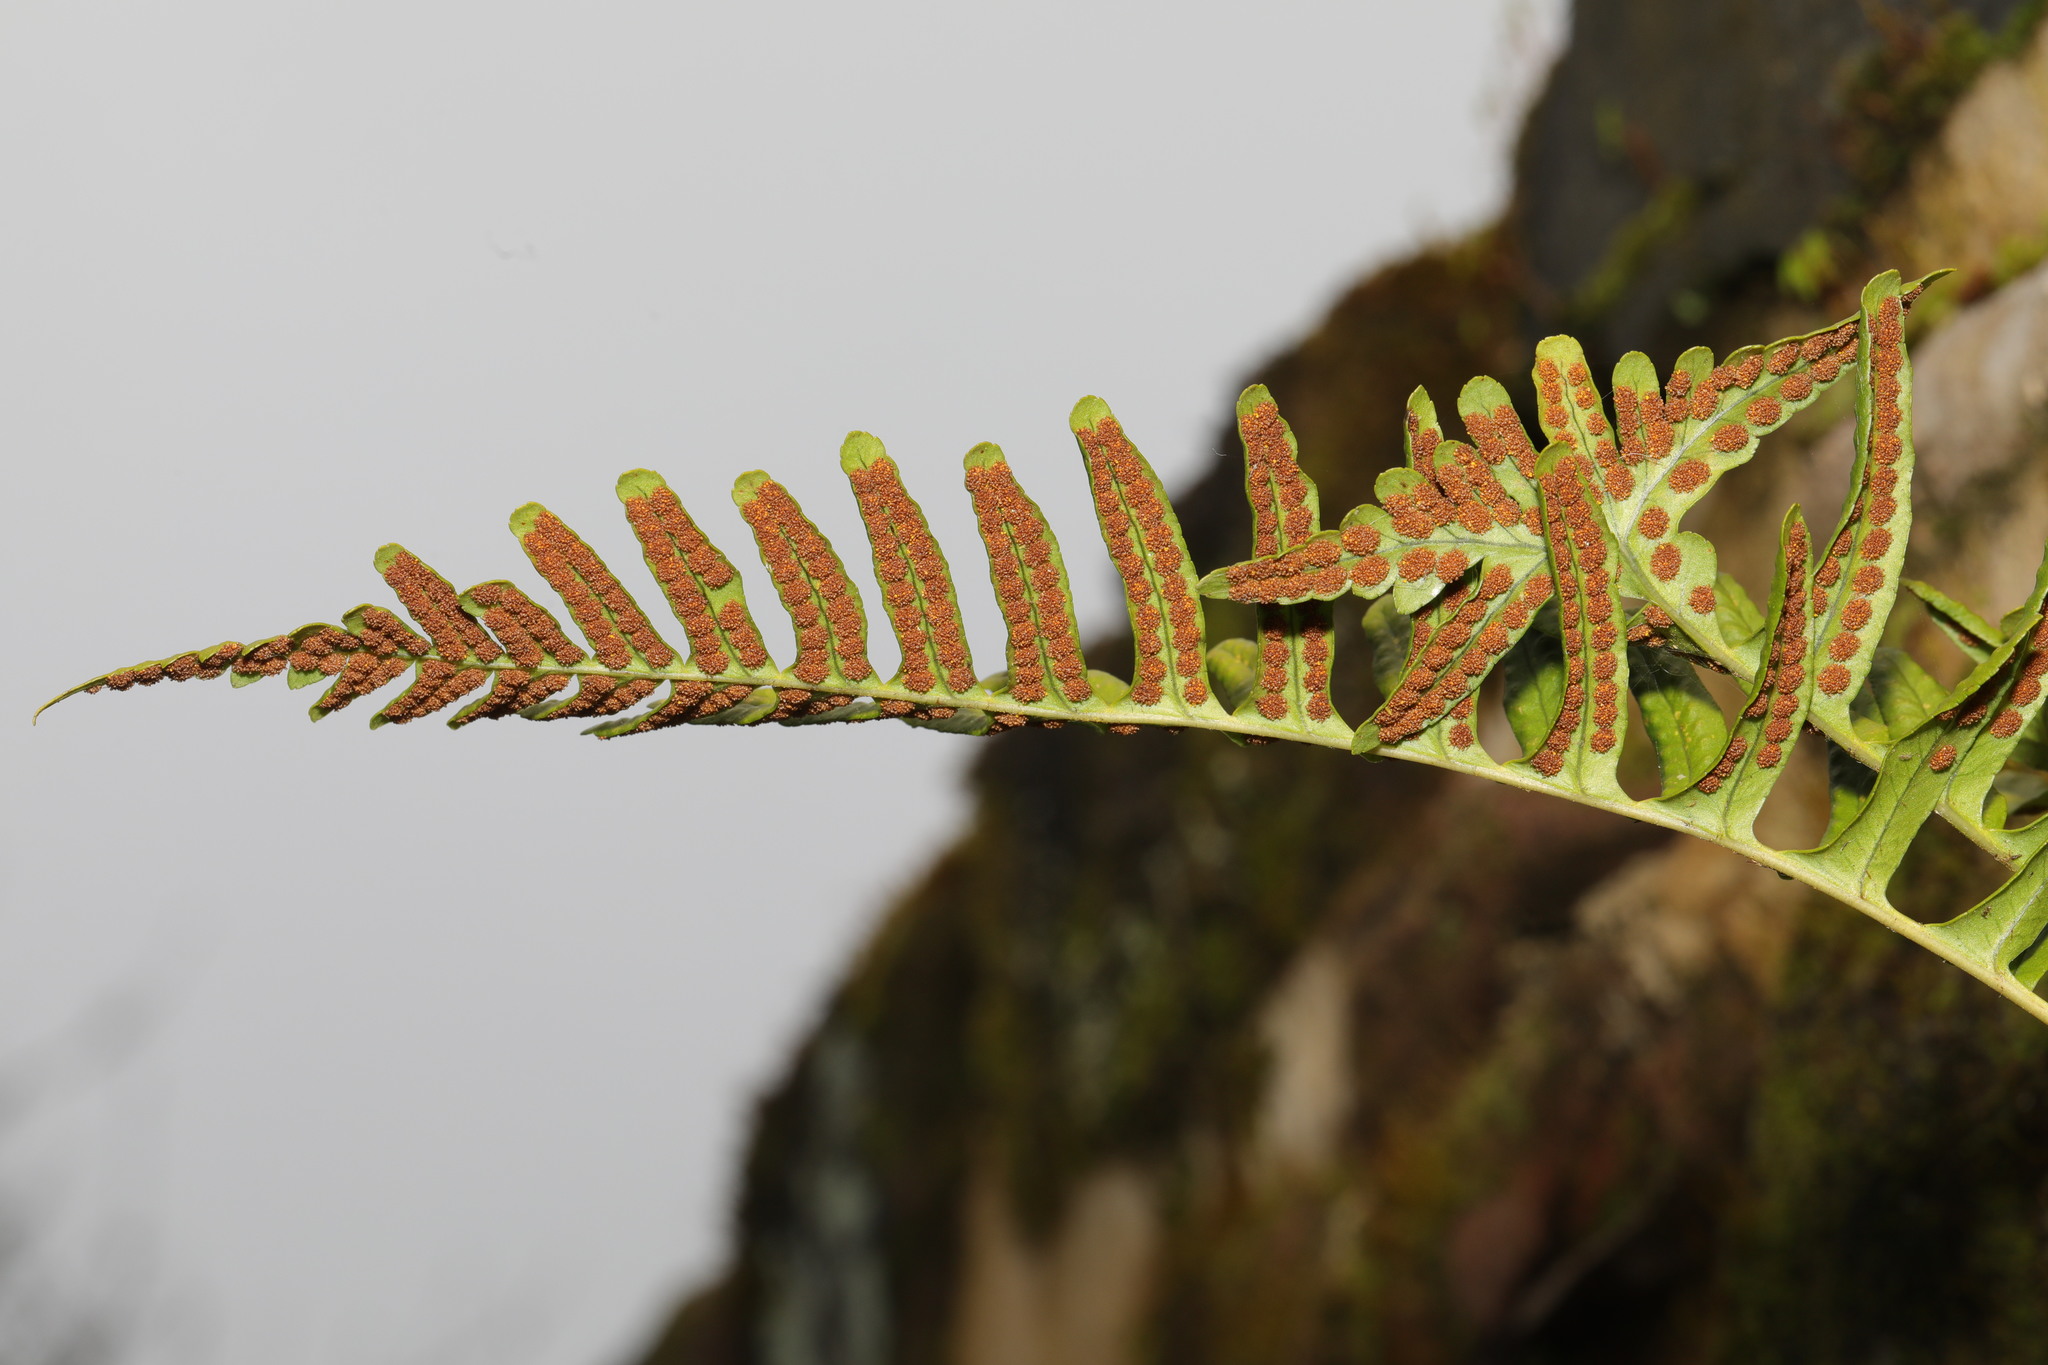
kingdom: Plantae
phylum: Tracheophyta
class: Polypodiopsida
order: Polypodiales
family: Polypodiaceae
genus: Polypodium
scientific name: Polypodium vulgare
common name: Common polypody
